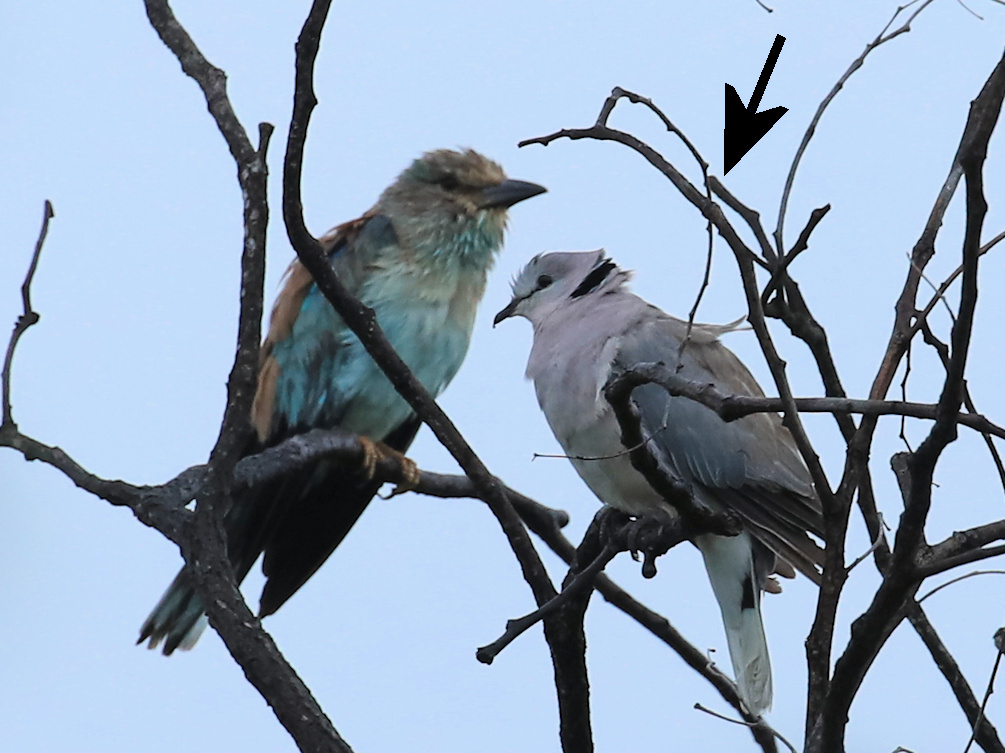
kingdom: Animalia
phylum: Chordata
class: Aves
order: Columbiformes
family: Columbidae
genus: Streptopelia
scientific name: Streptopelia capicola
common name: Ring-necked dove
